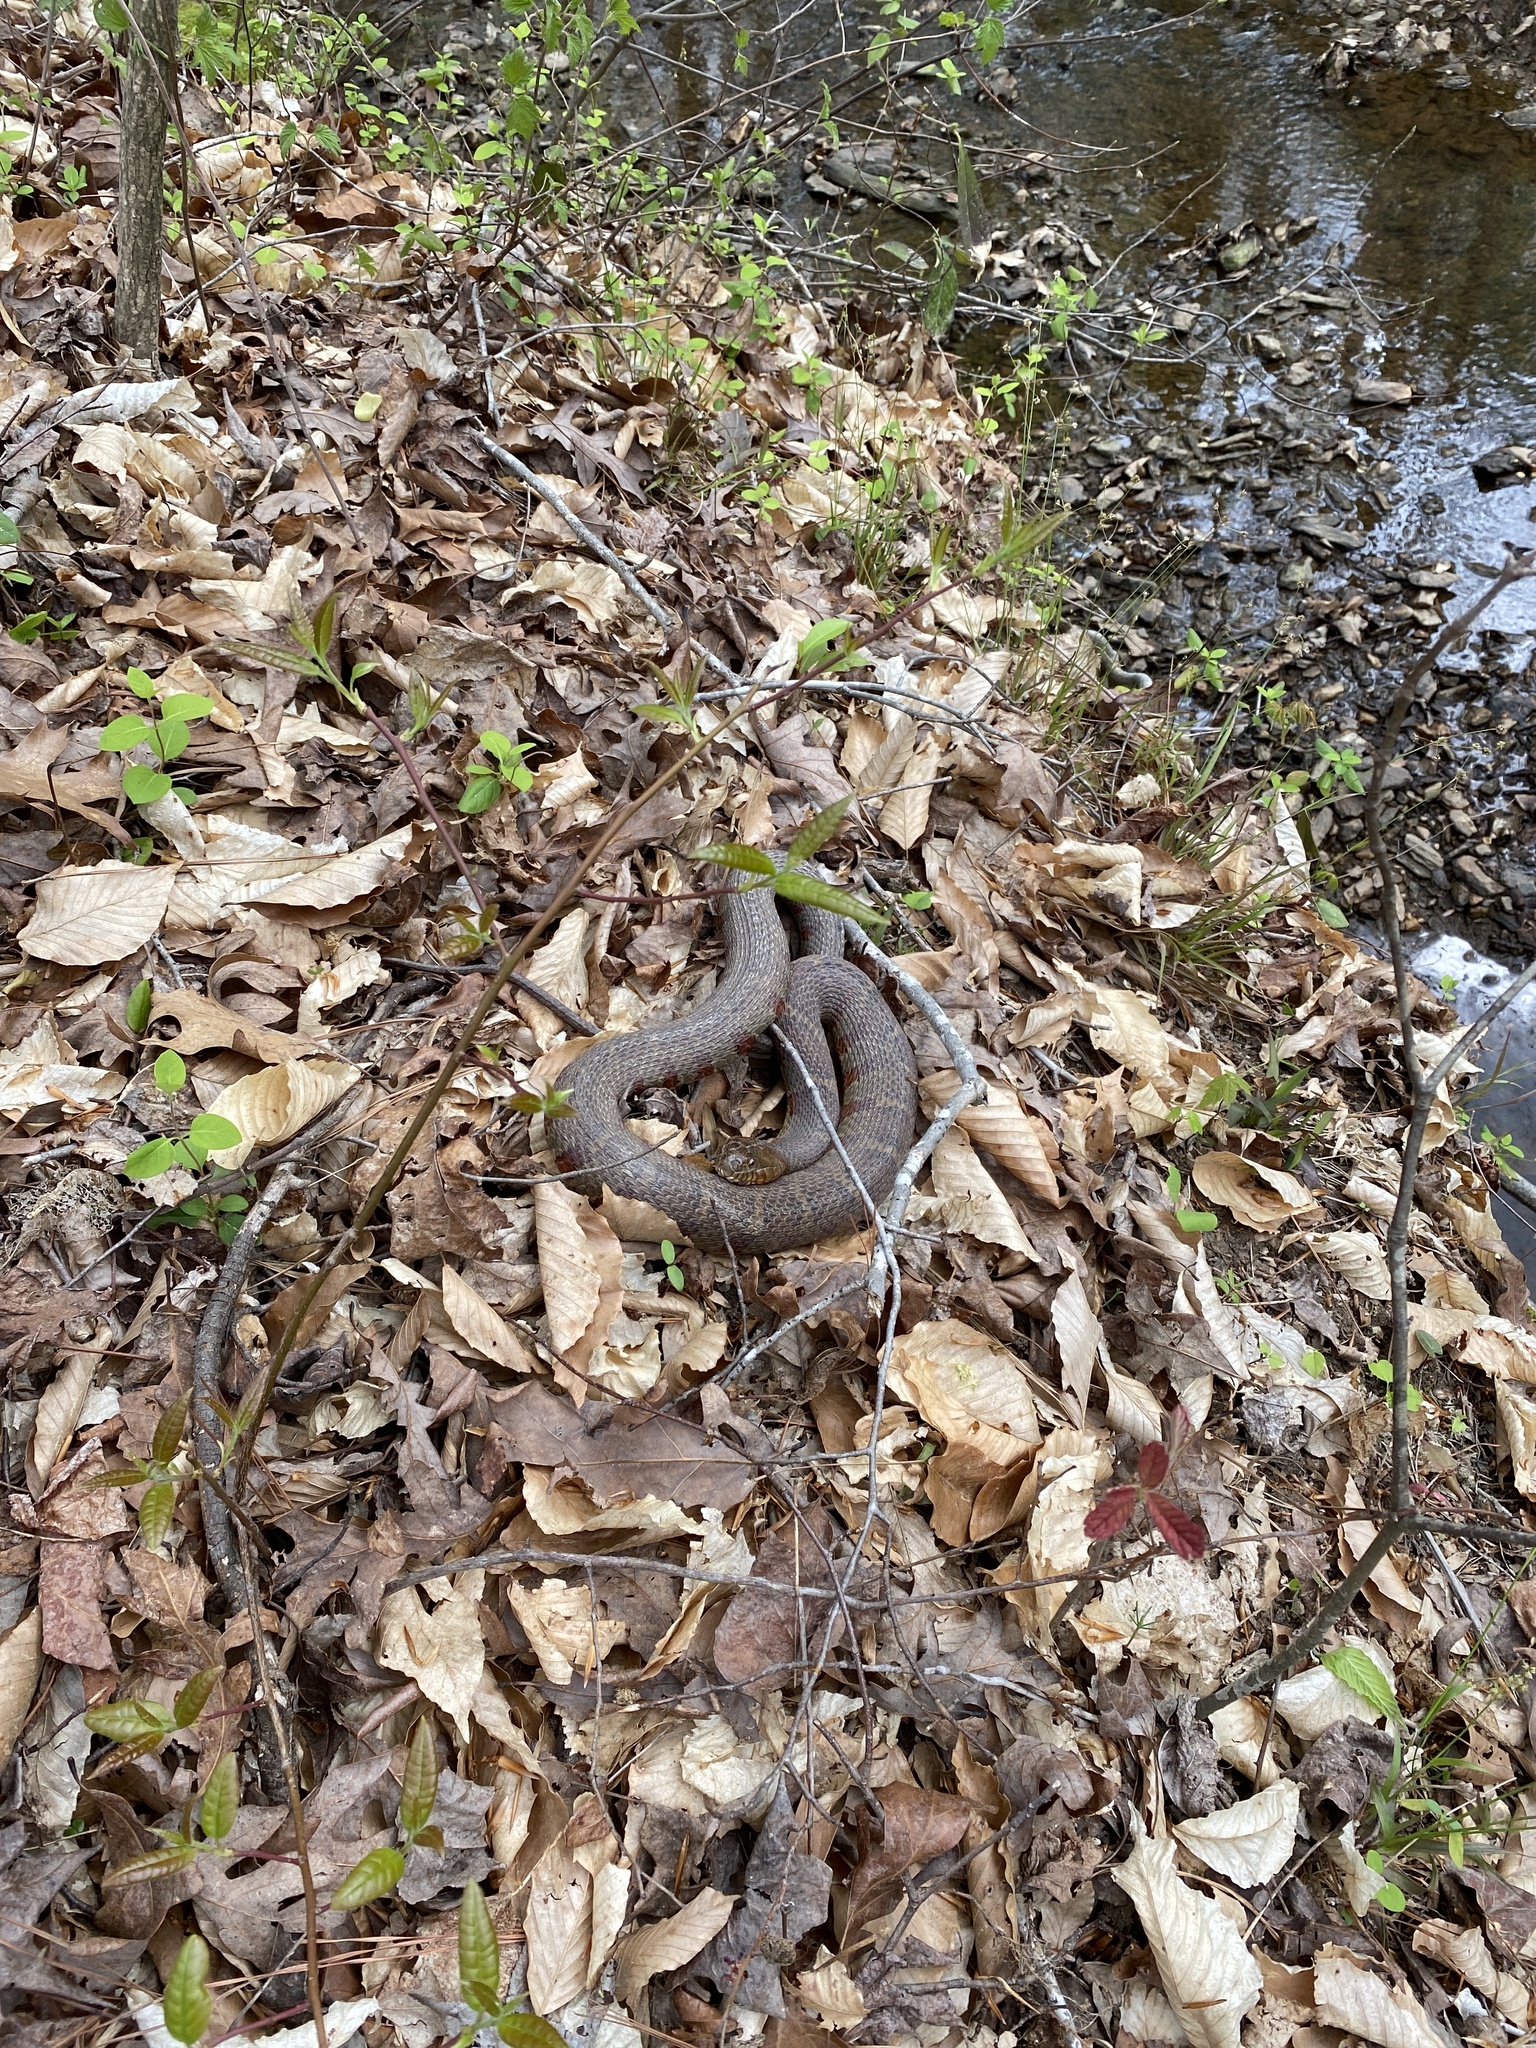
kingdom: Animalia
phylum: Chordata
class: Squamata
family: Colubridae
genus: Nerodia
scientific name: Nerodia sipedon
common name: Northern water snake
